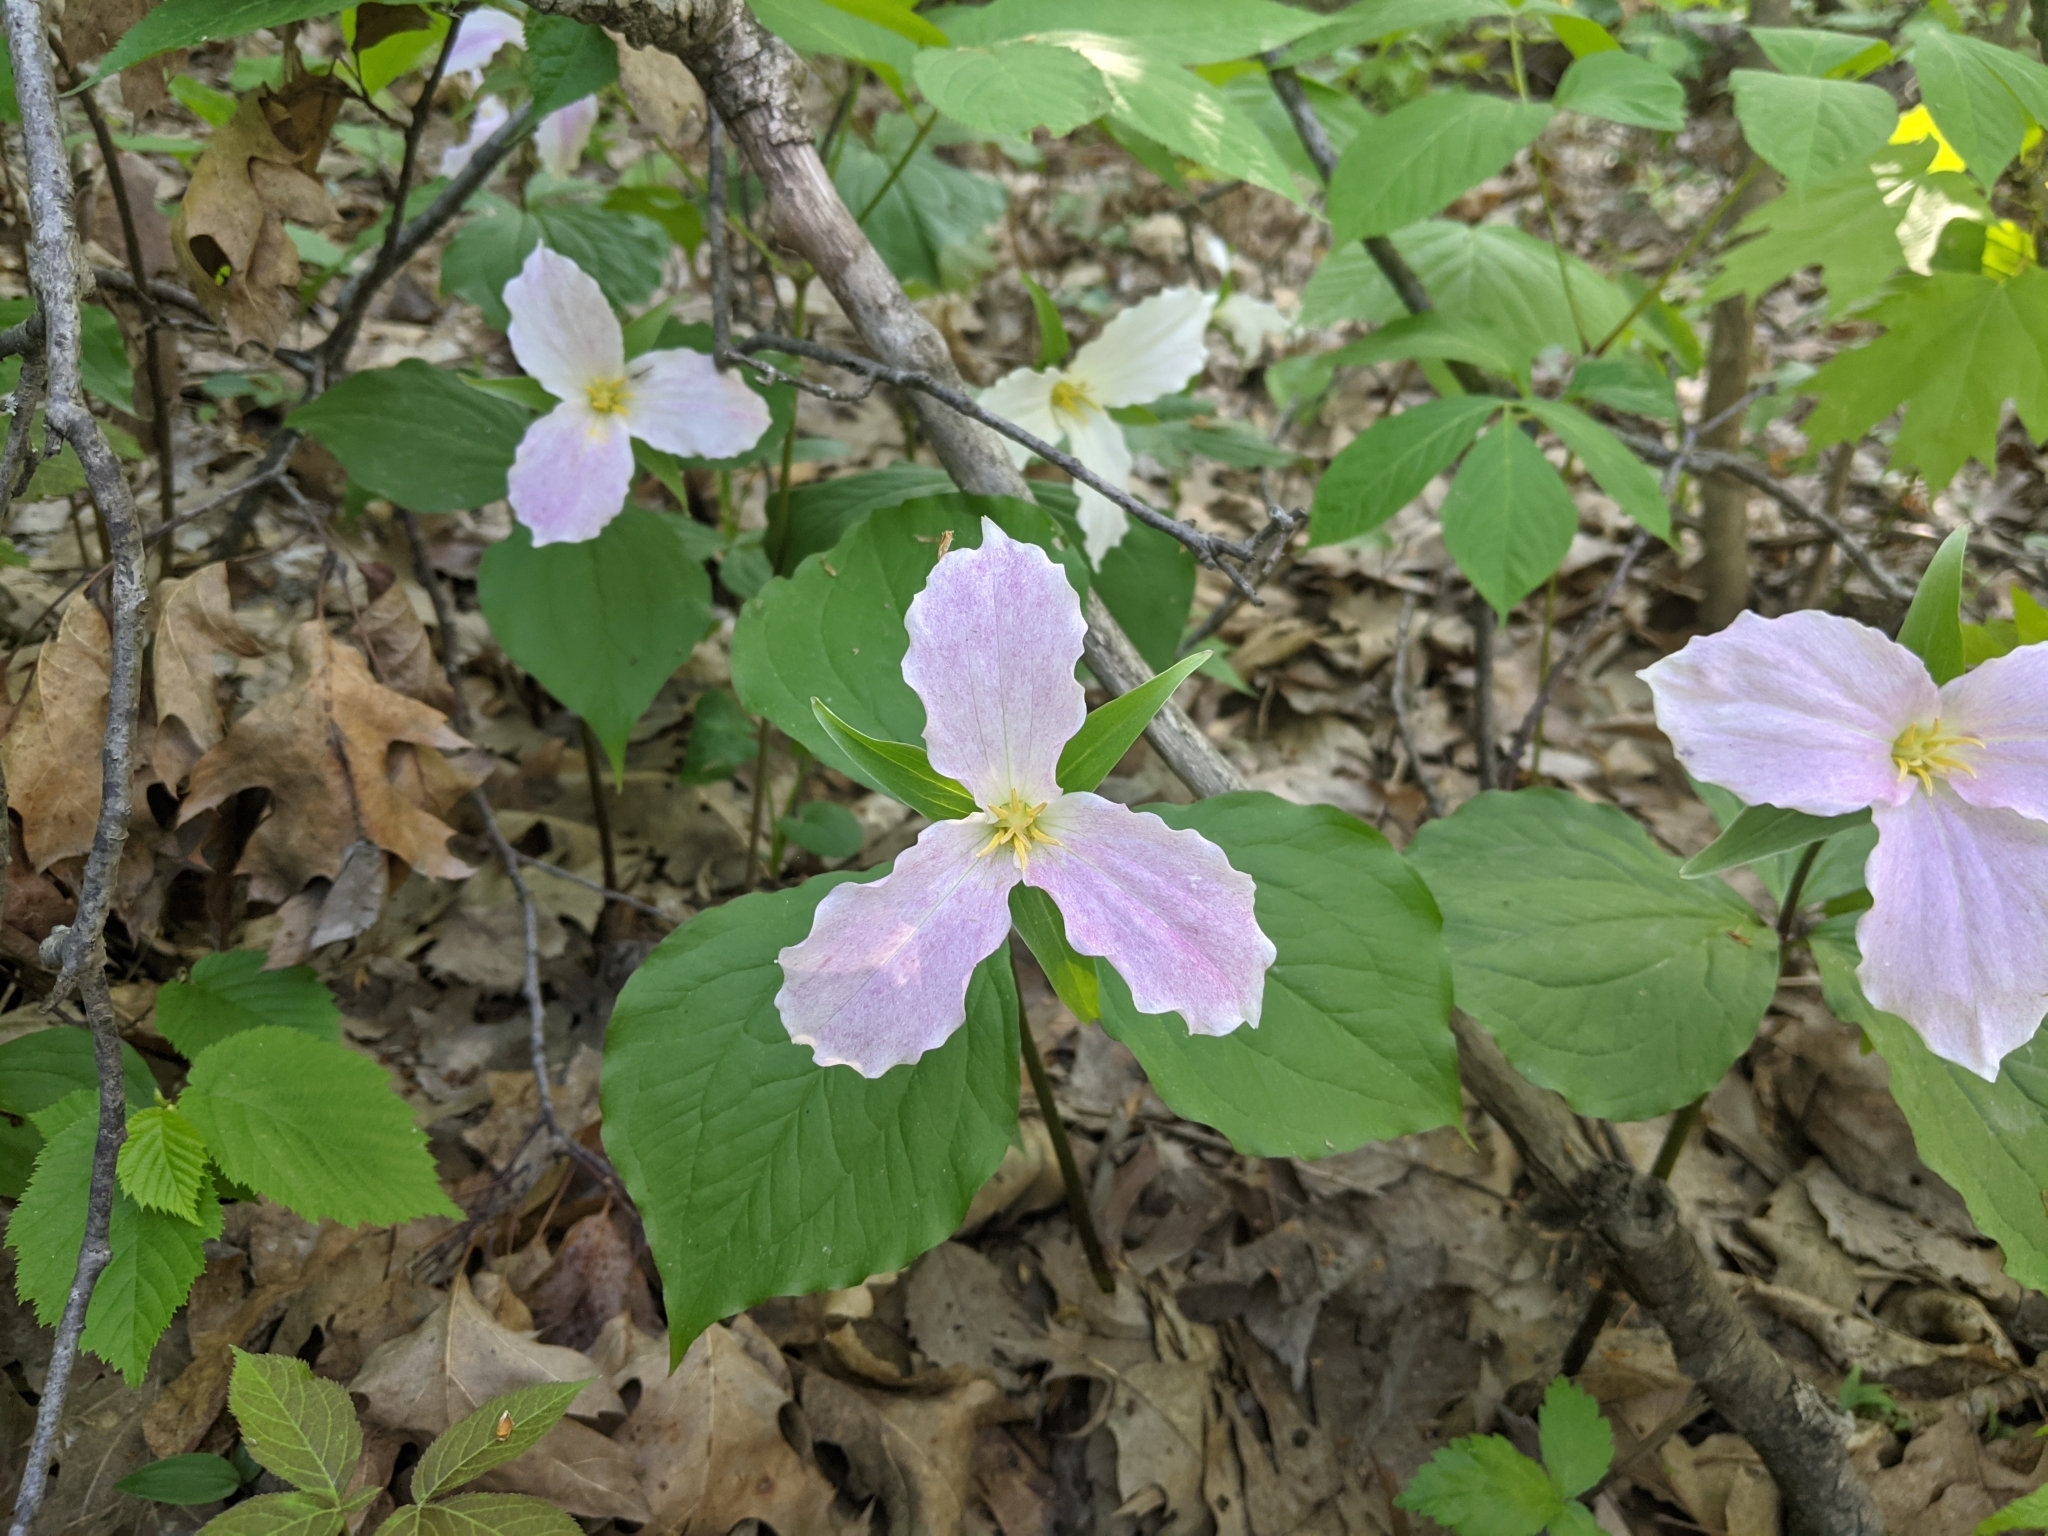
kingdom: Plantae
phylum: Tracheophyta
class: Liliopsida
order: Liliales
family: Melanthiaceae
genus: Trillium
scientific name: Trillium grandiflorum
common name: Great white trillium
